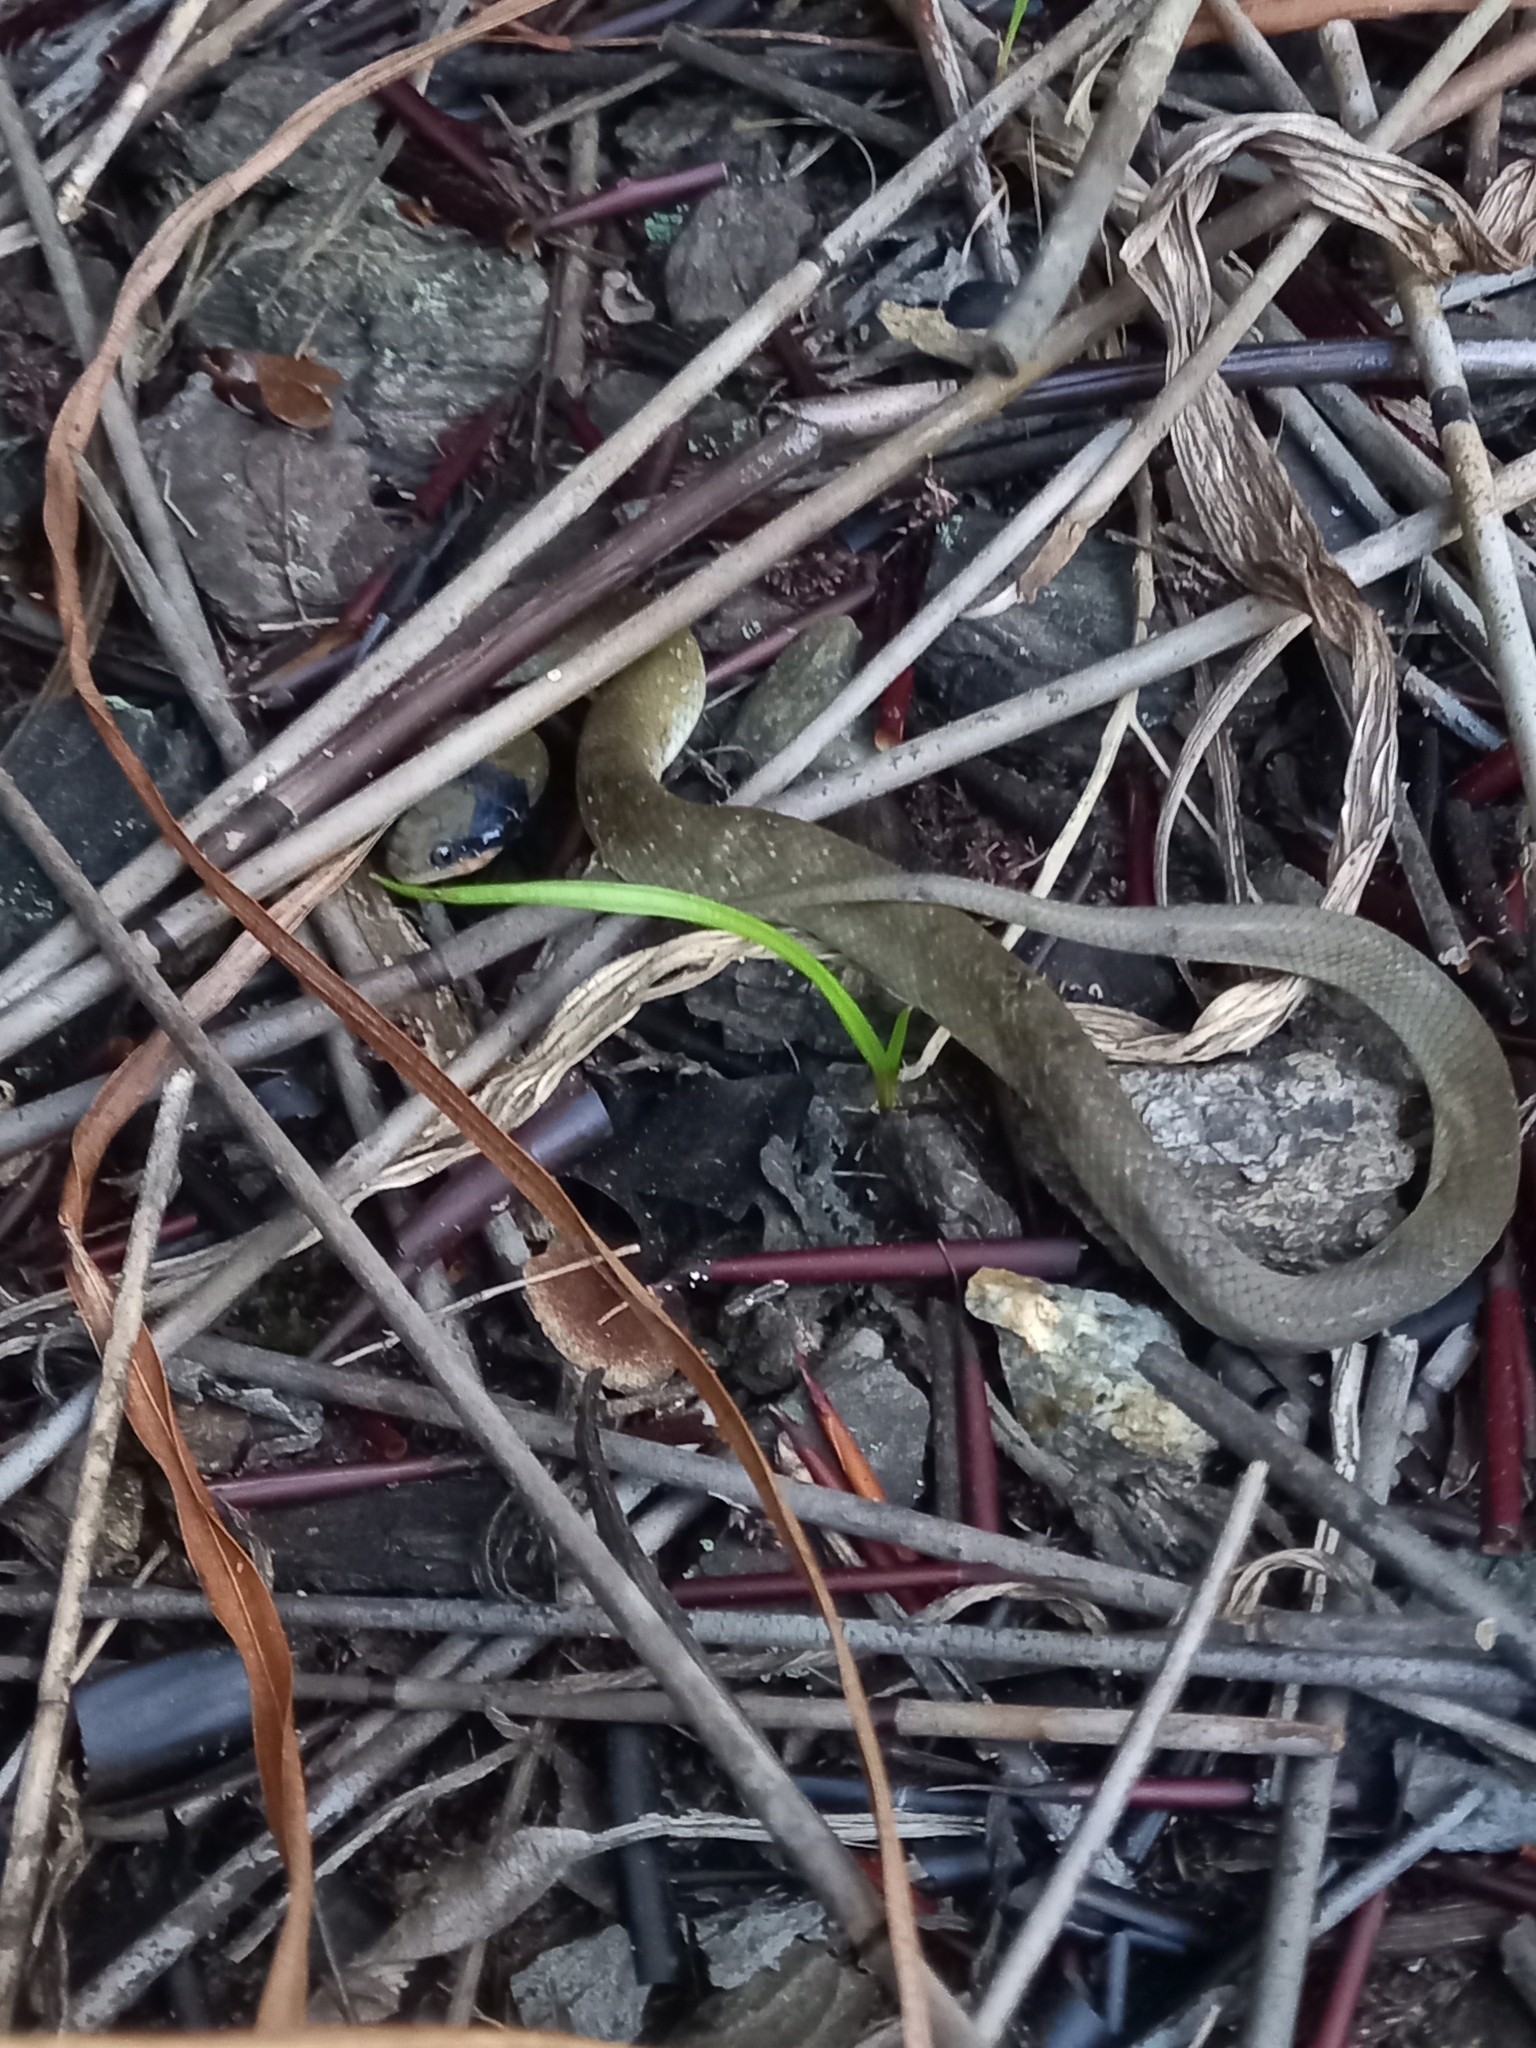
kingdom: Animalia
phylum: Chordata
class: Squamata
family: Colubridae
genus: Crotaphopeltis
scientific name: Crotaphopeltis hotamboeia
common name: Red-lipped snake
